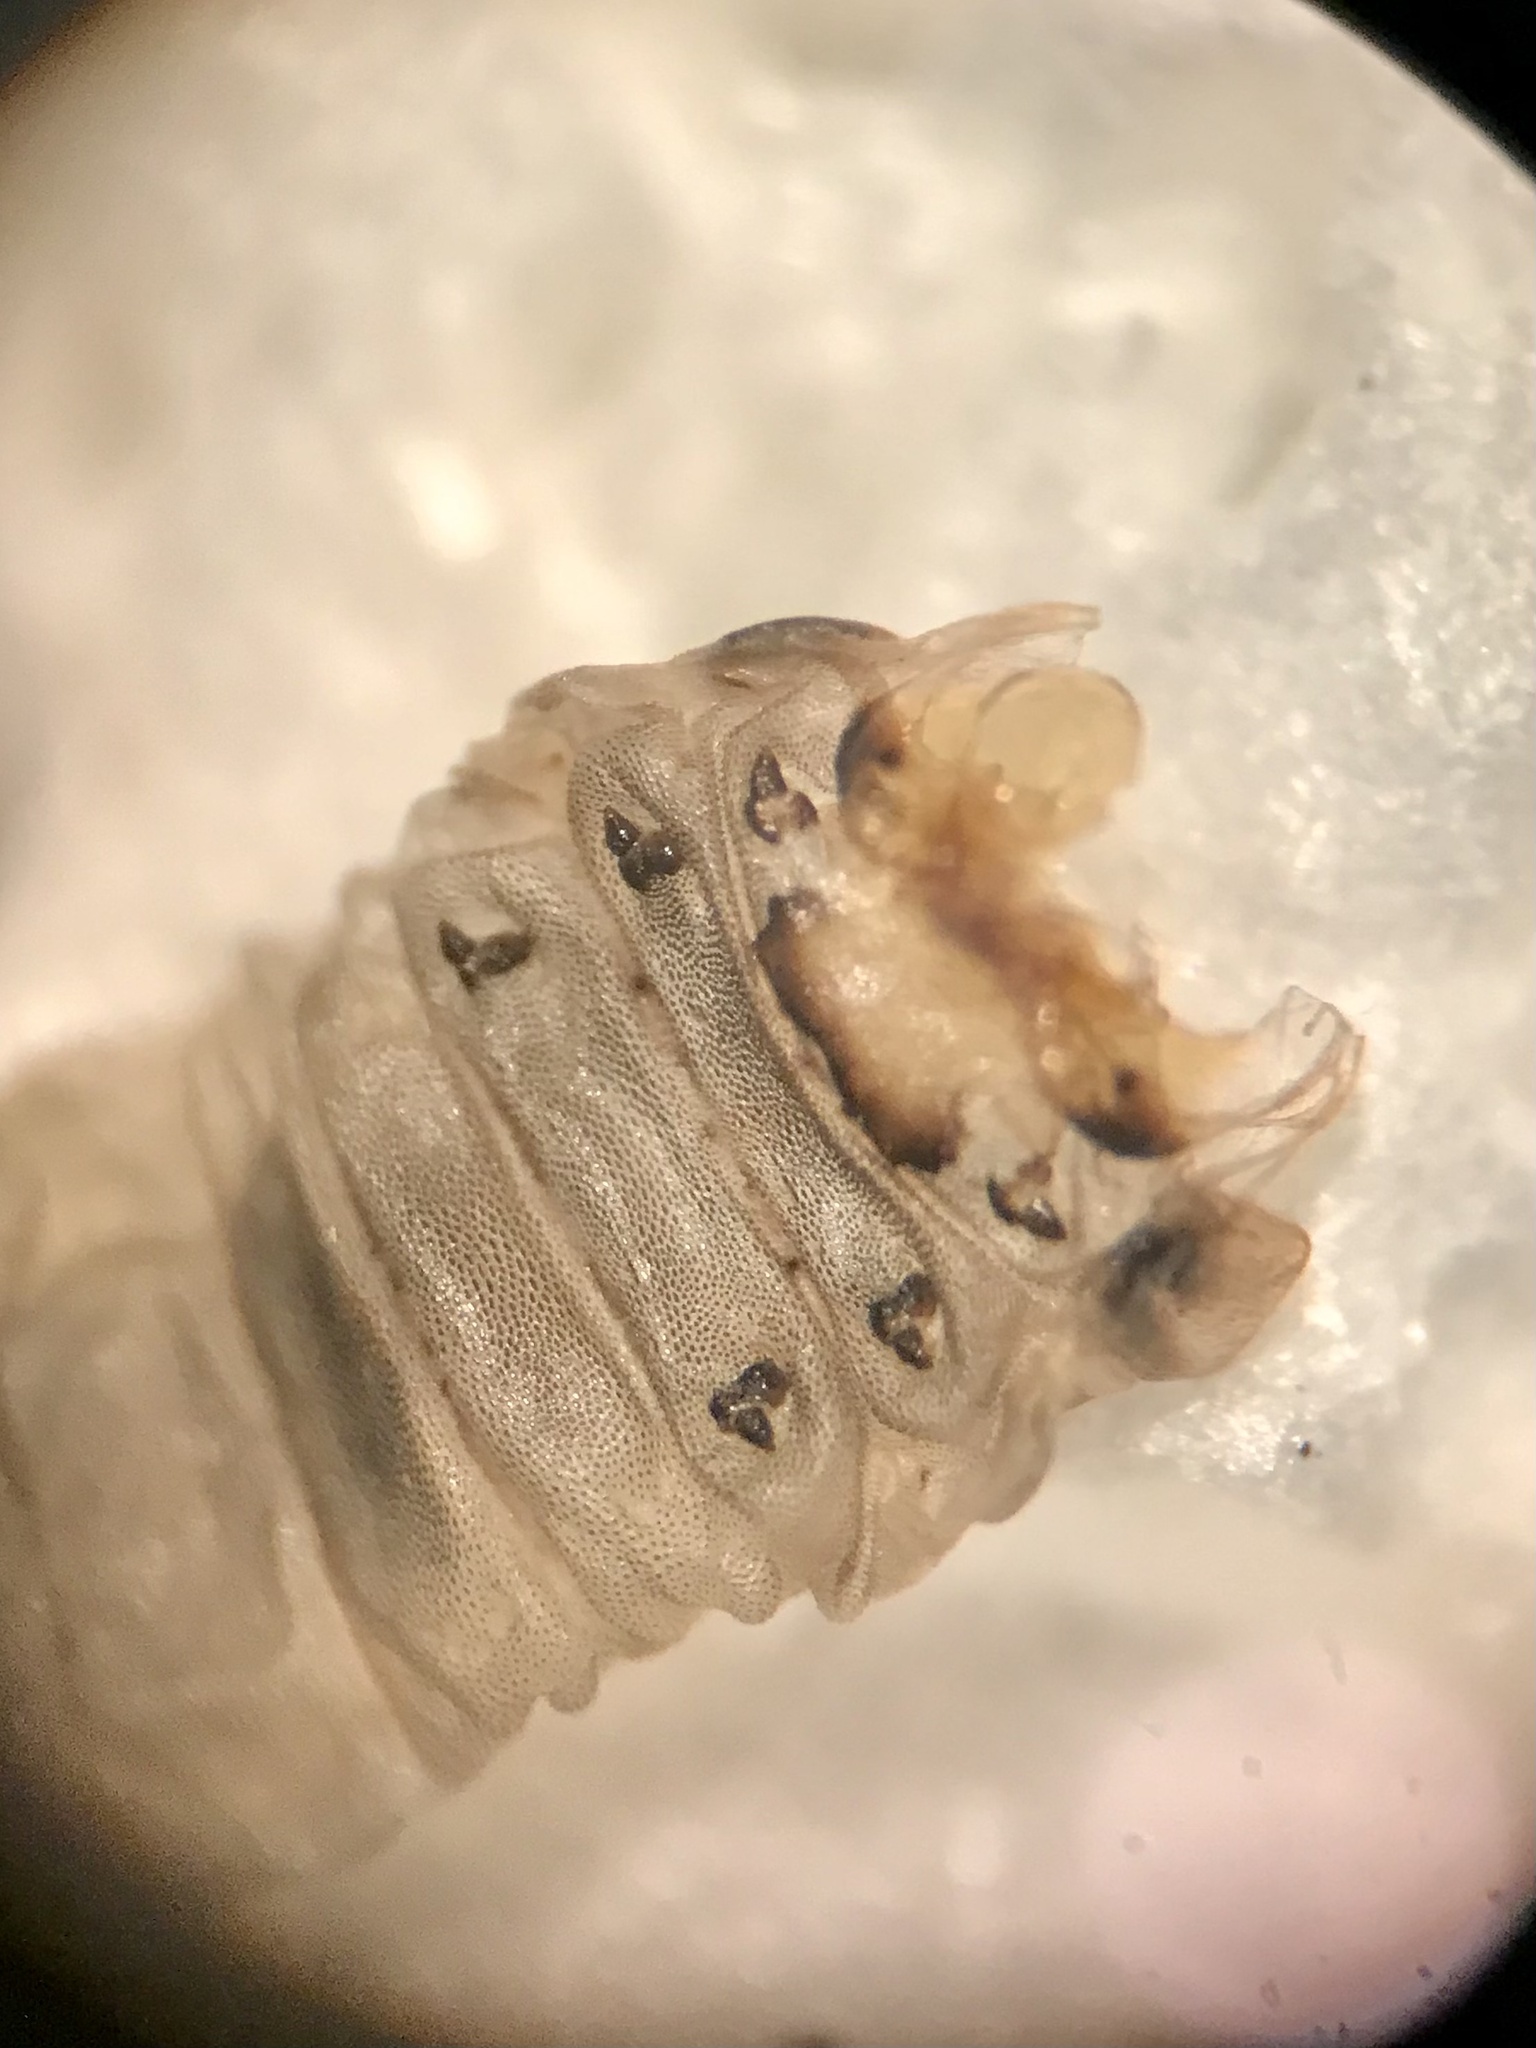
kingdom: Animalia
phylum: Arthropoda
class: Insecta
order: Hymenoptera
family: Tenthredinidae
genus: Profenusa
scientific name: Profenusa thomsoni
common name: Amber-marked birch leafminer
